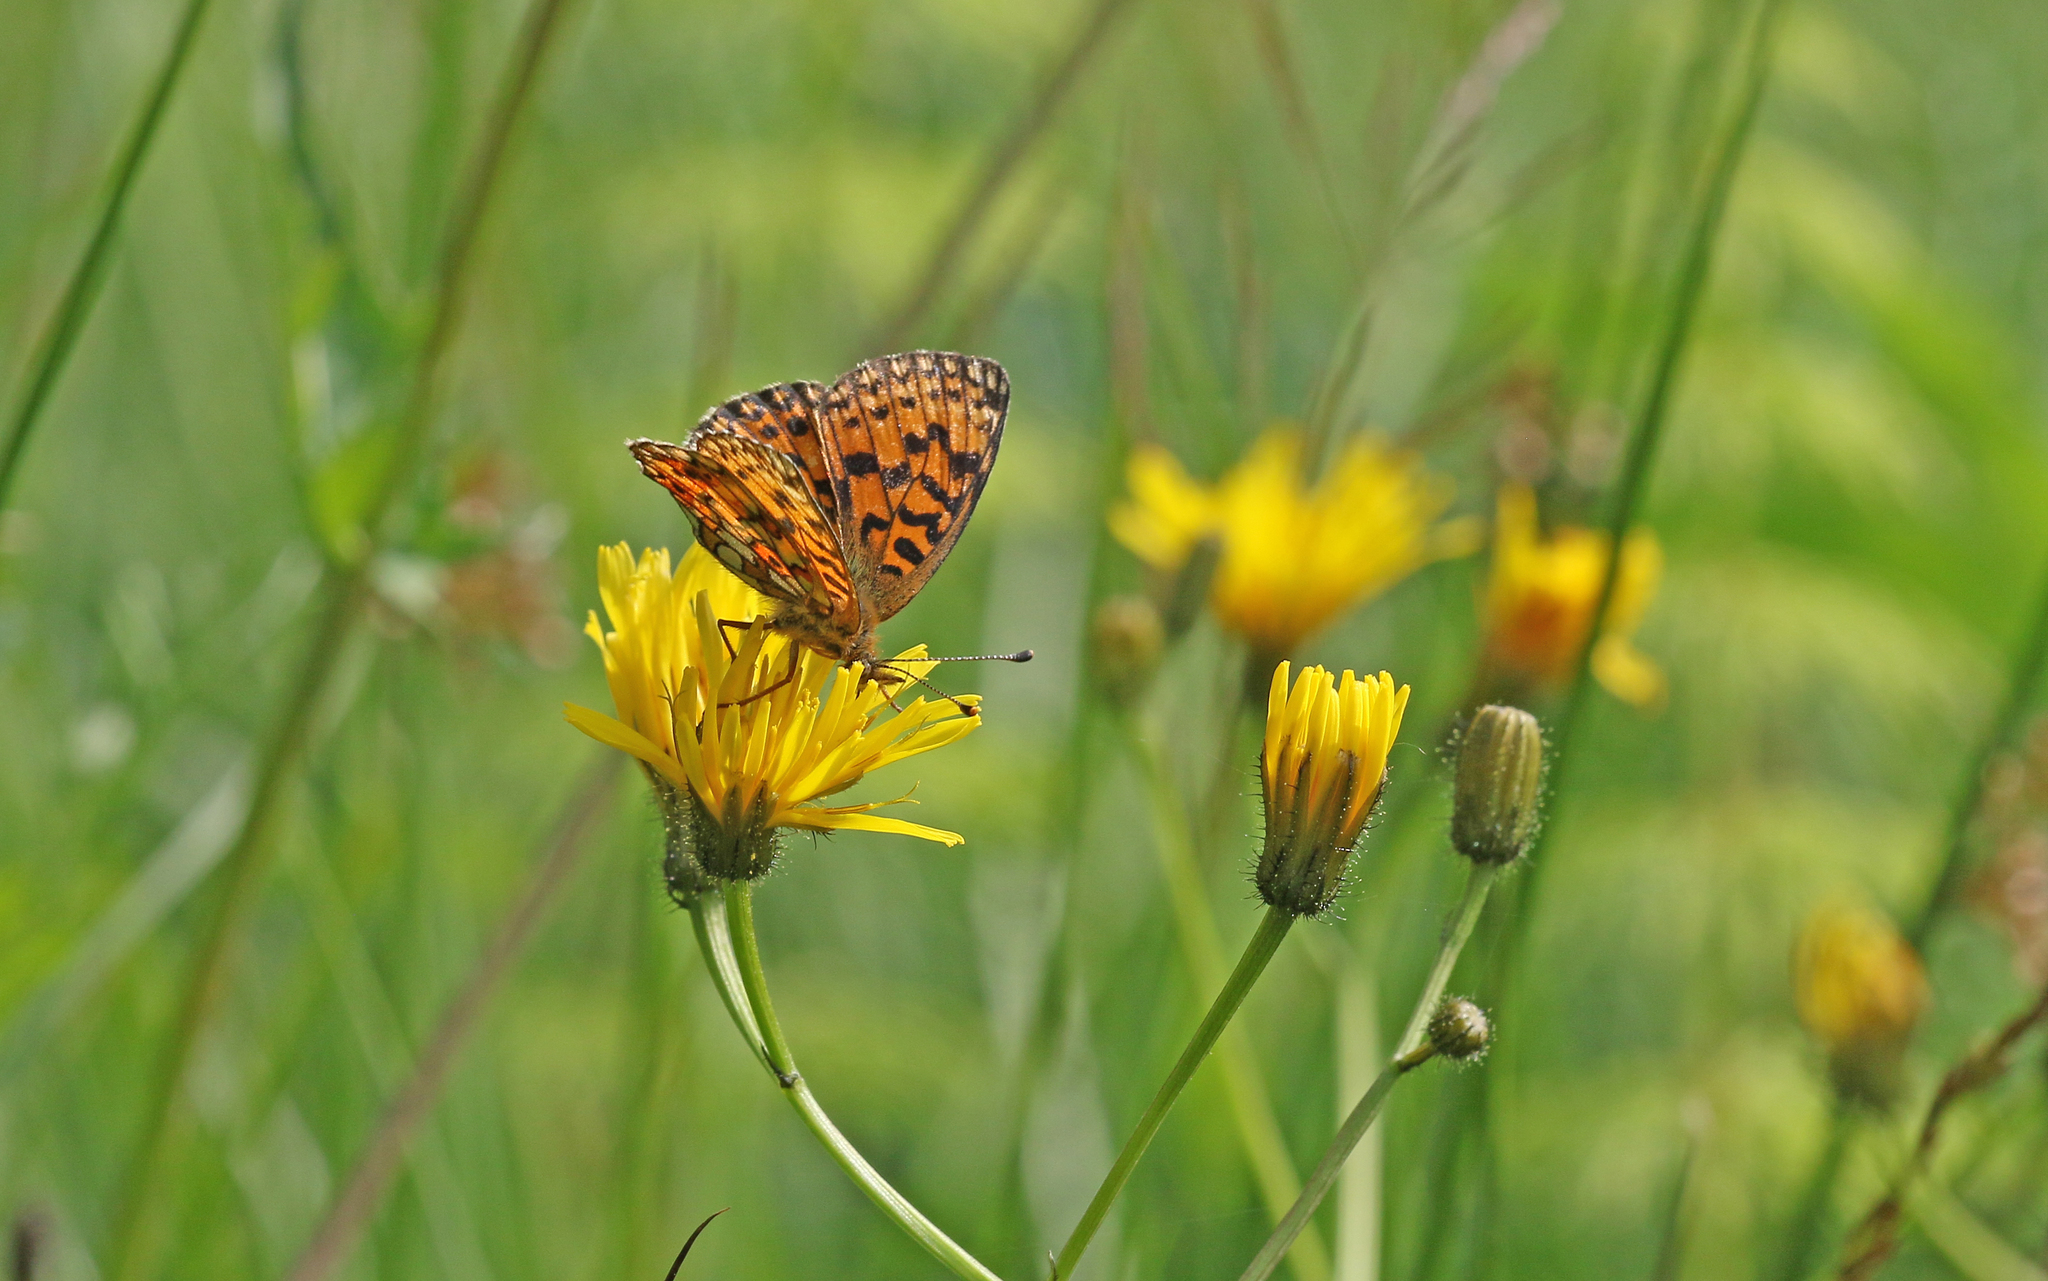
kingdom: Animalia
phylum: Arthropoda
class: Insecta
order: Lepidoptera
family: Nymphalidae
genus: Boloria
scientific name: Boloria selene
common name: Small pearl-bordered fritillary
